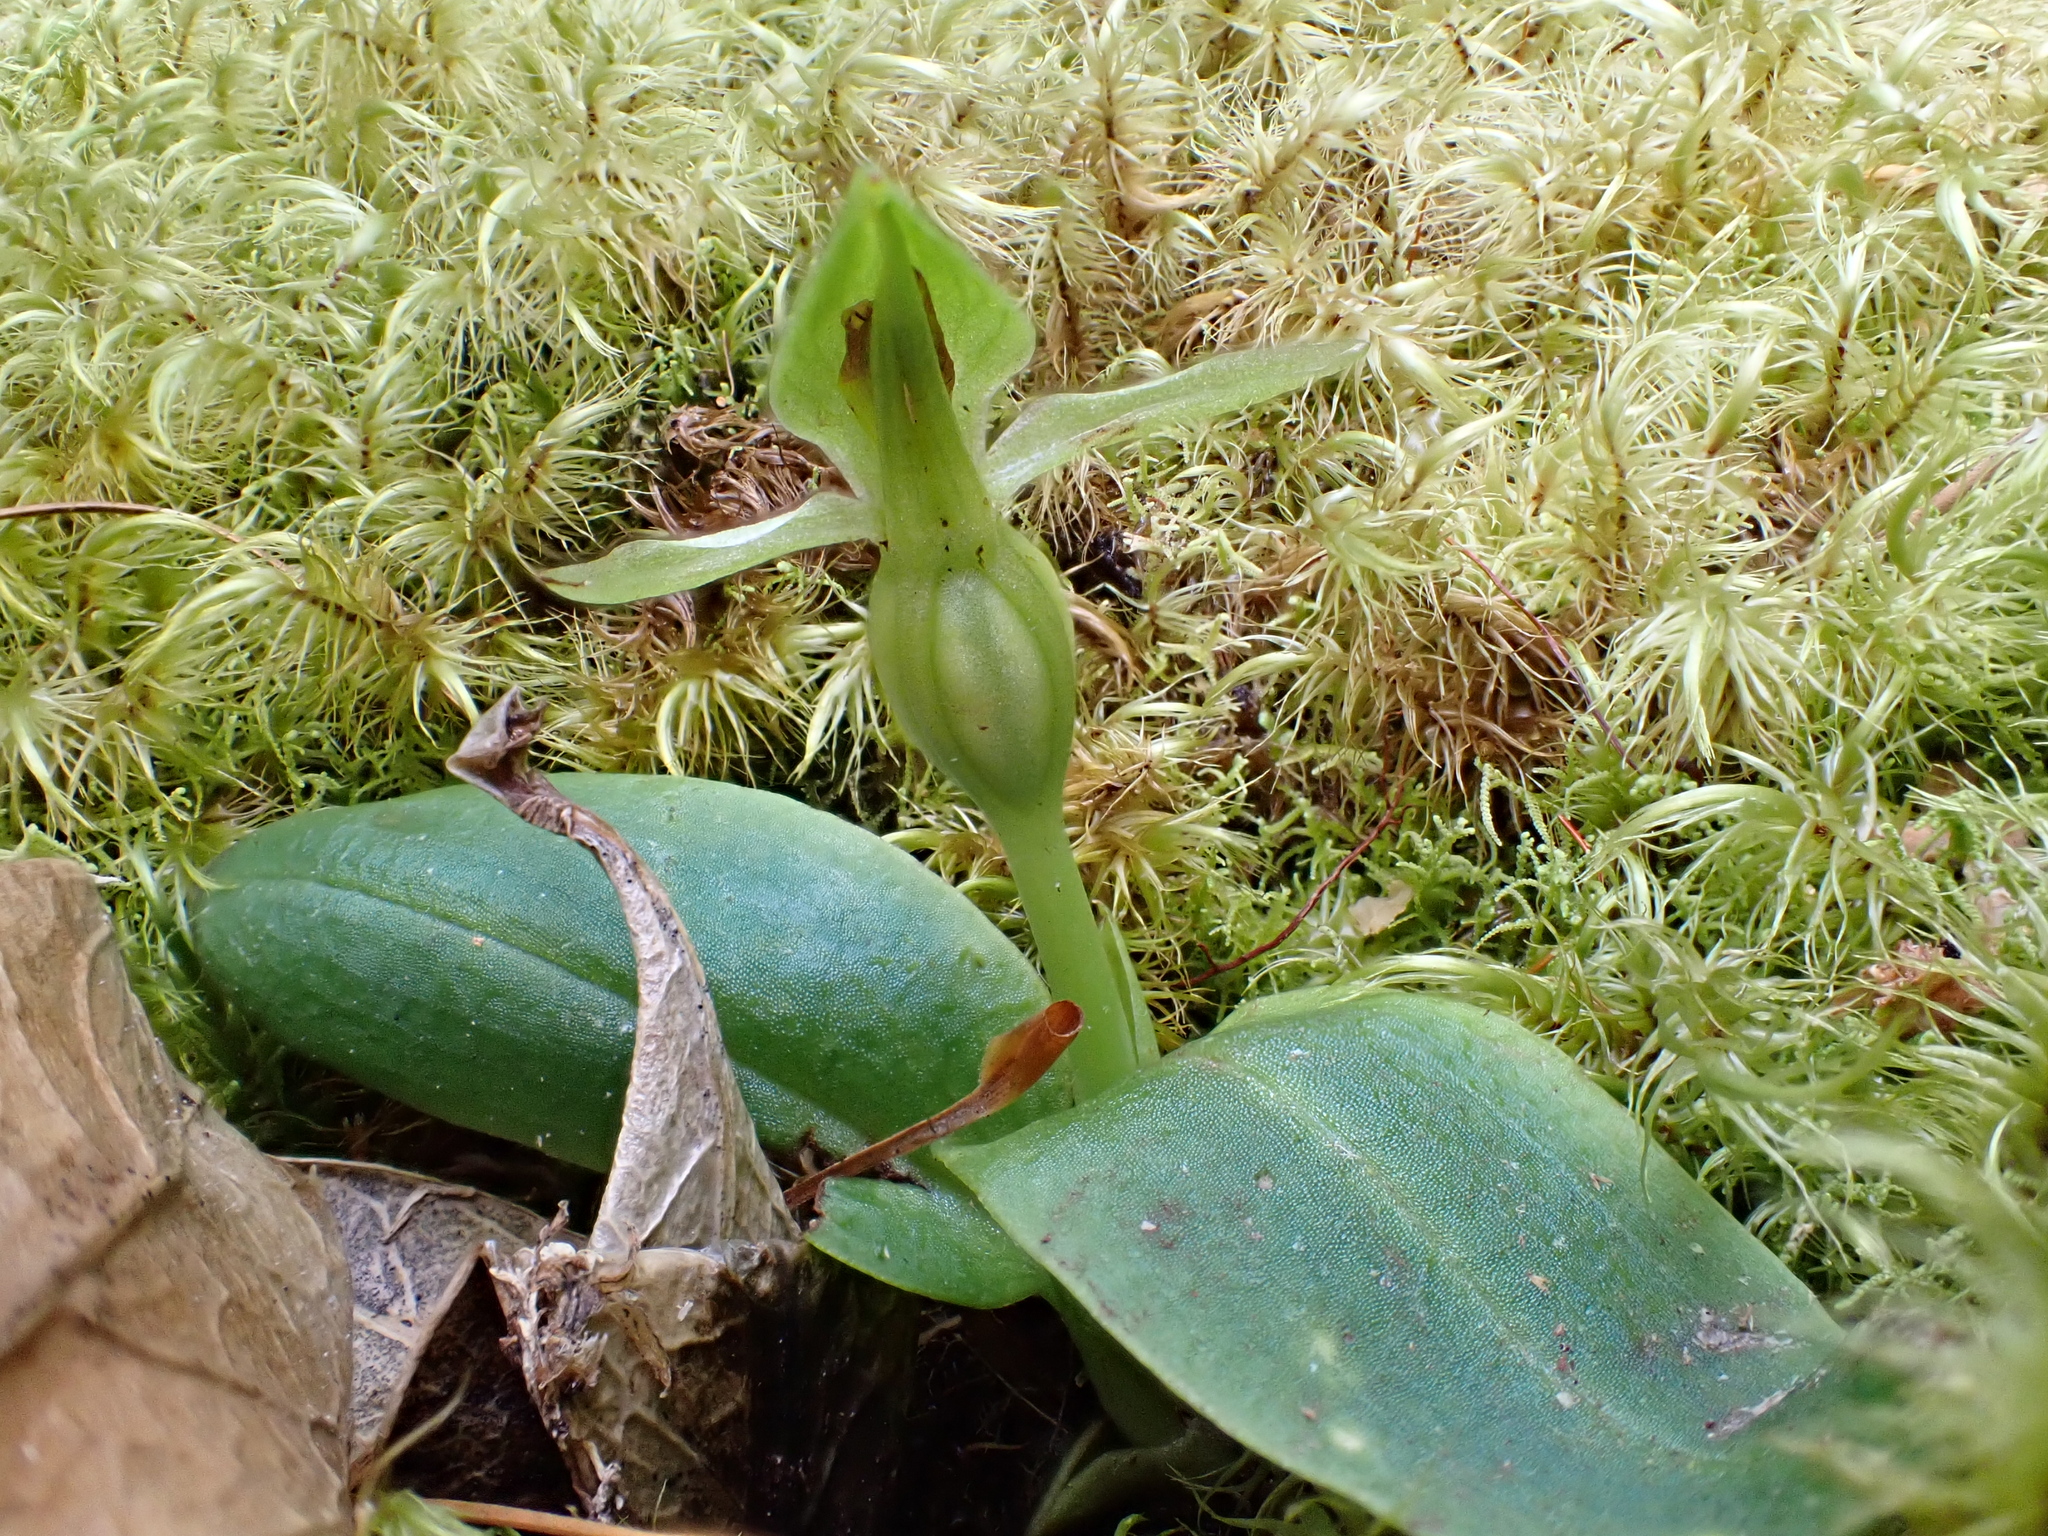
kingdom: Plantae
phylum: Tracheophyta
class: Liliopsida
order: Asparagales
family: Orchidaceae
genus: Chiloglottis
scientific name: Chiloglottis cornuta
